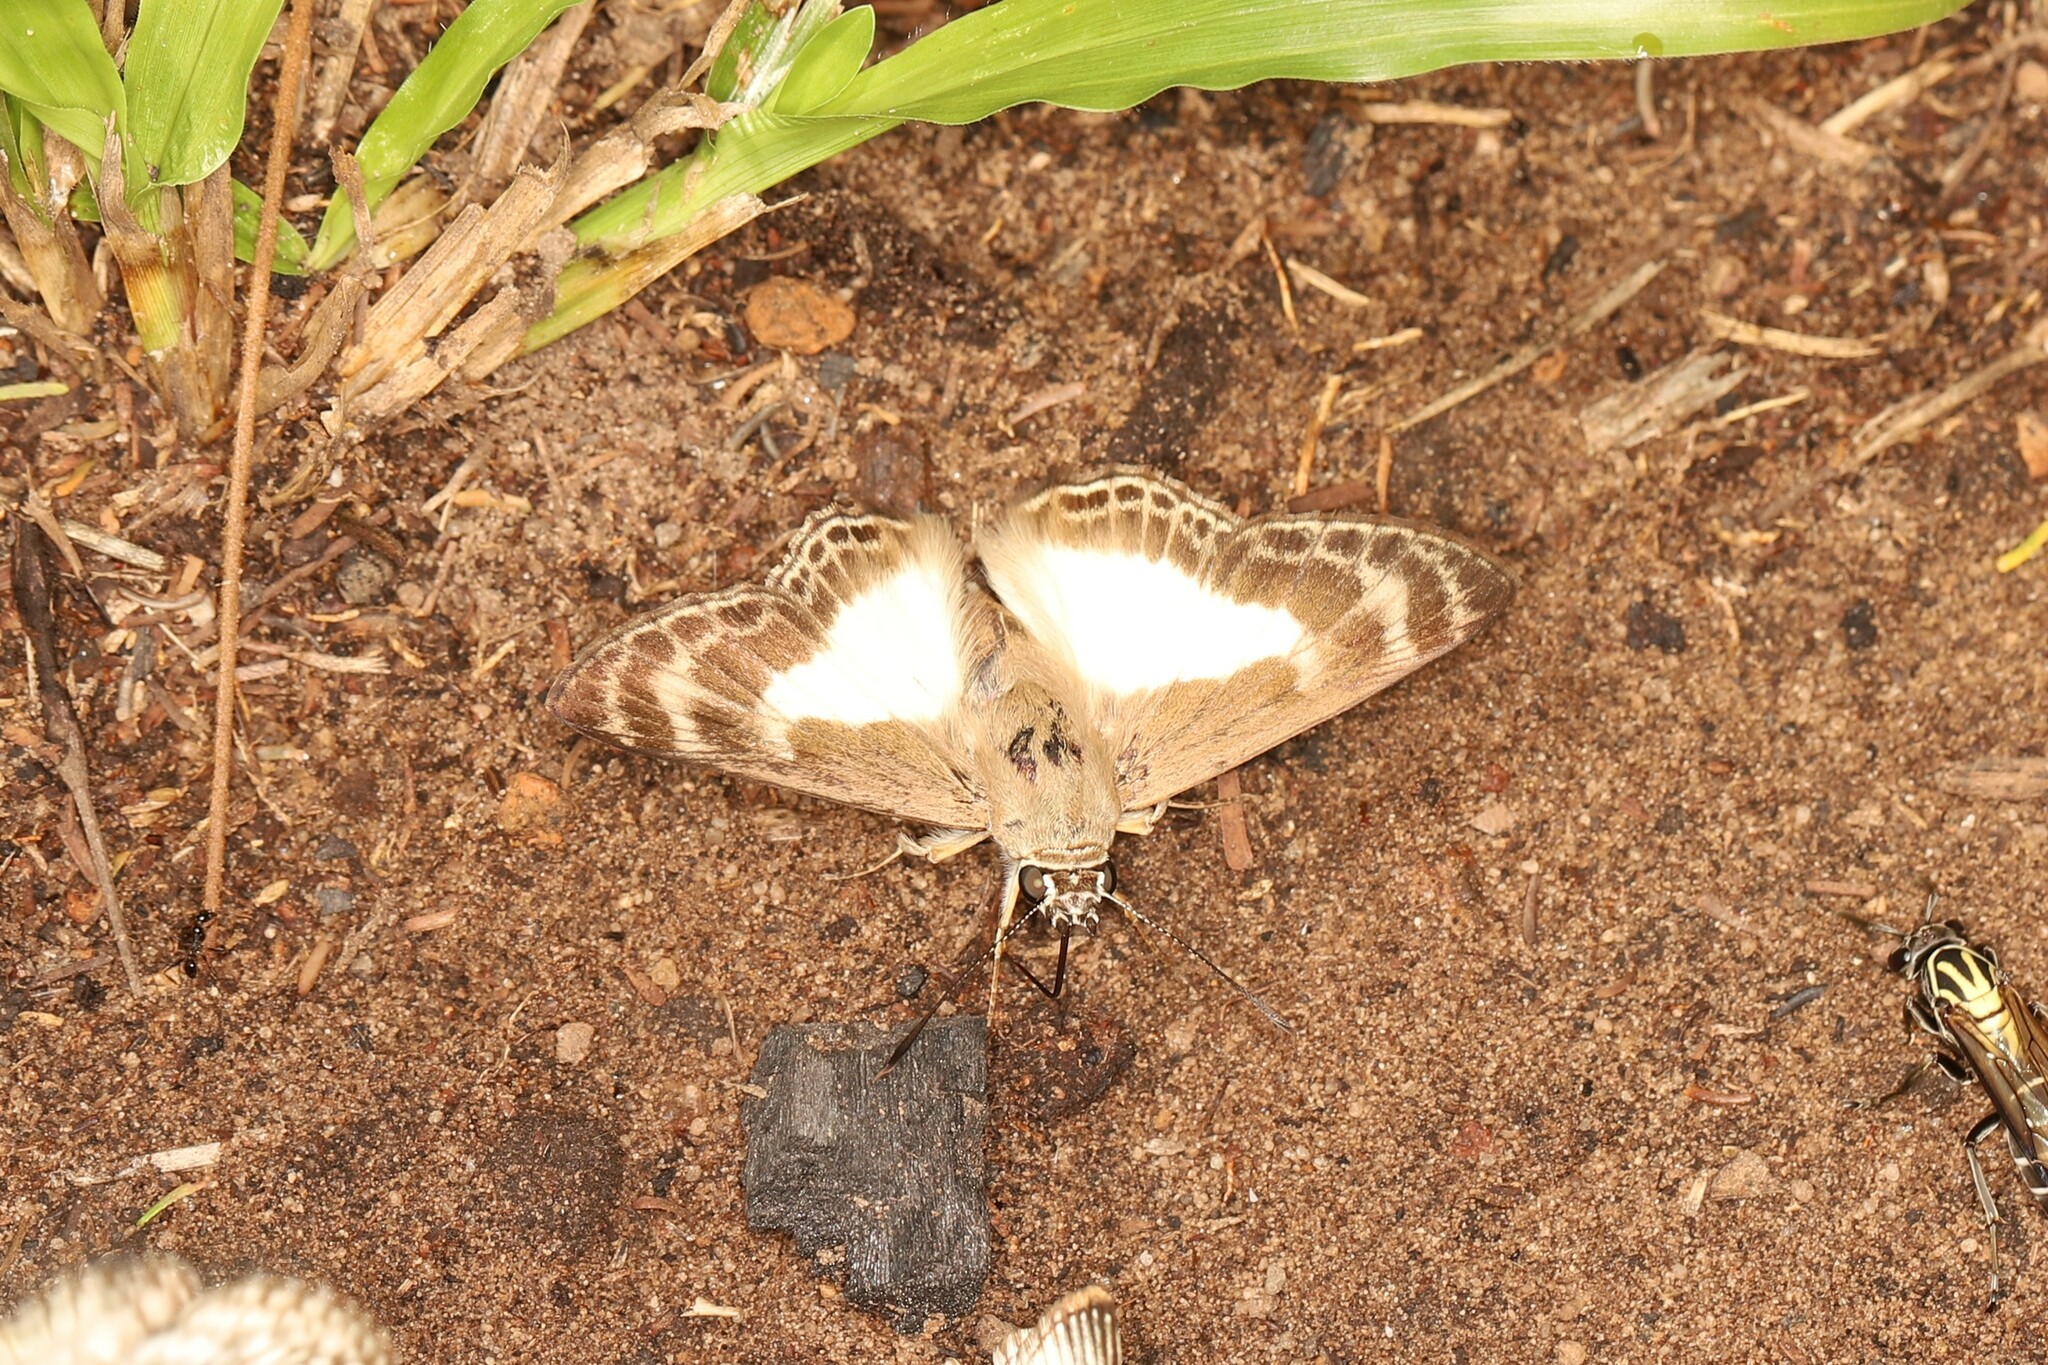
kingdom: Animalia
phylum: Arthropoda
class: Insecta
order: Lepidoptera
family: Hesperiidae
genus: Sophista
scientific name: Sophista aristoteles
